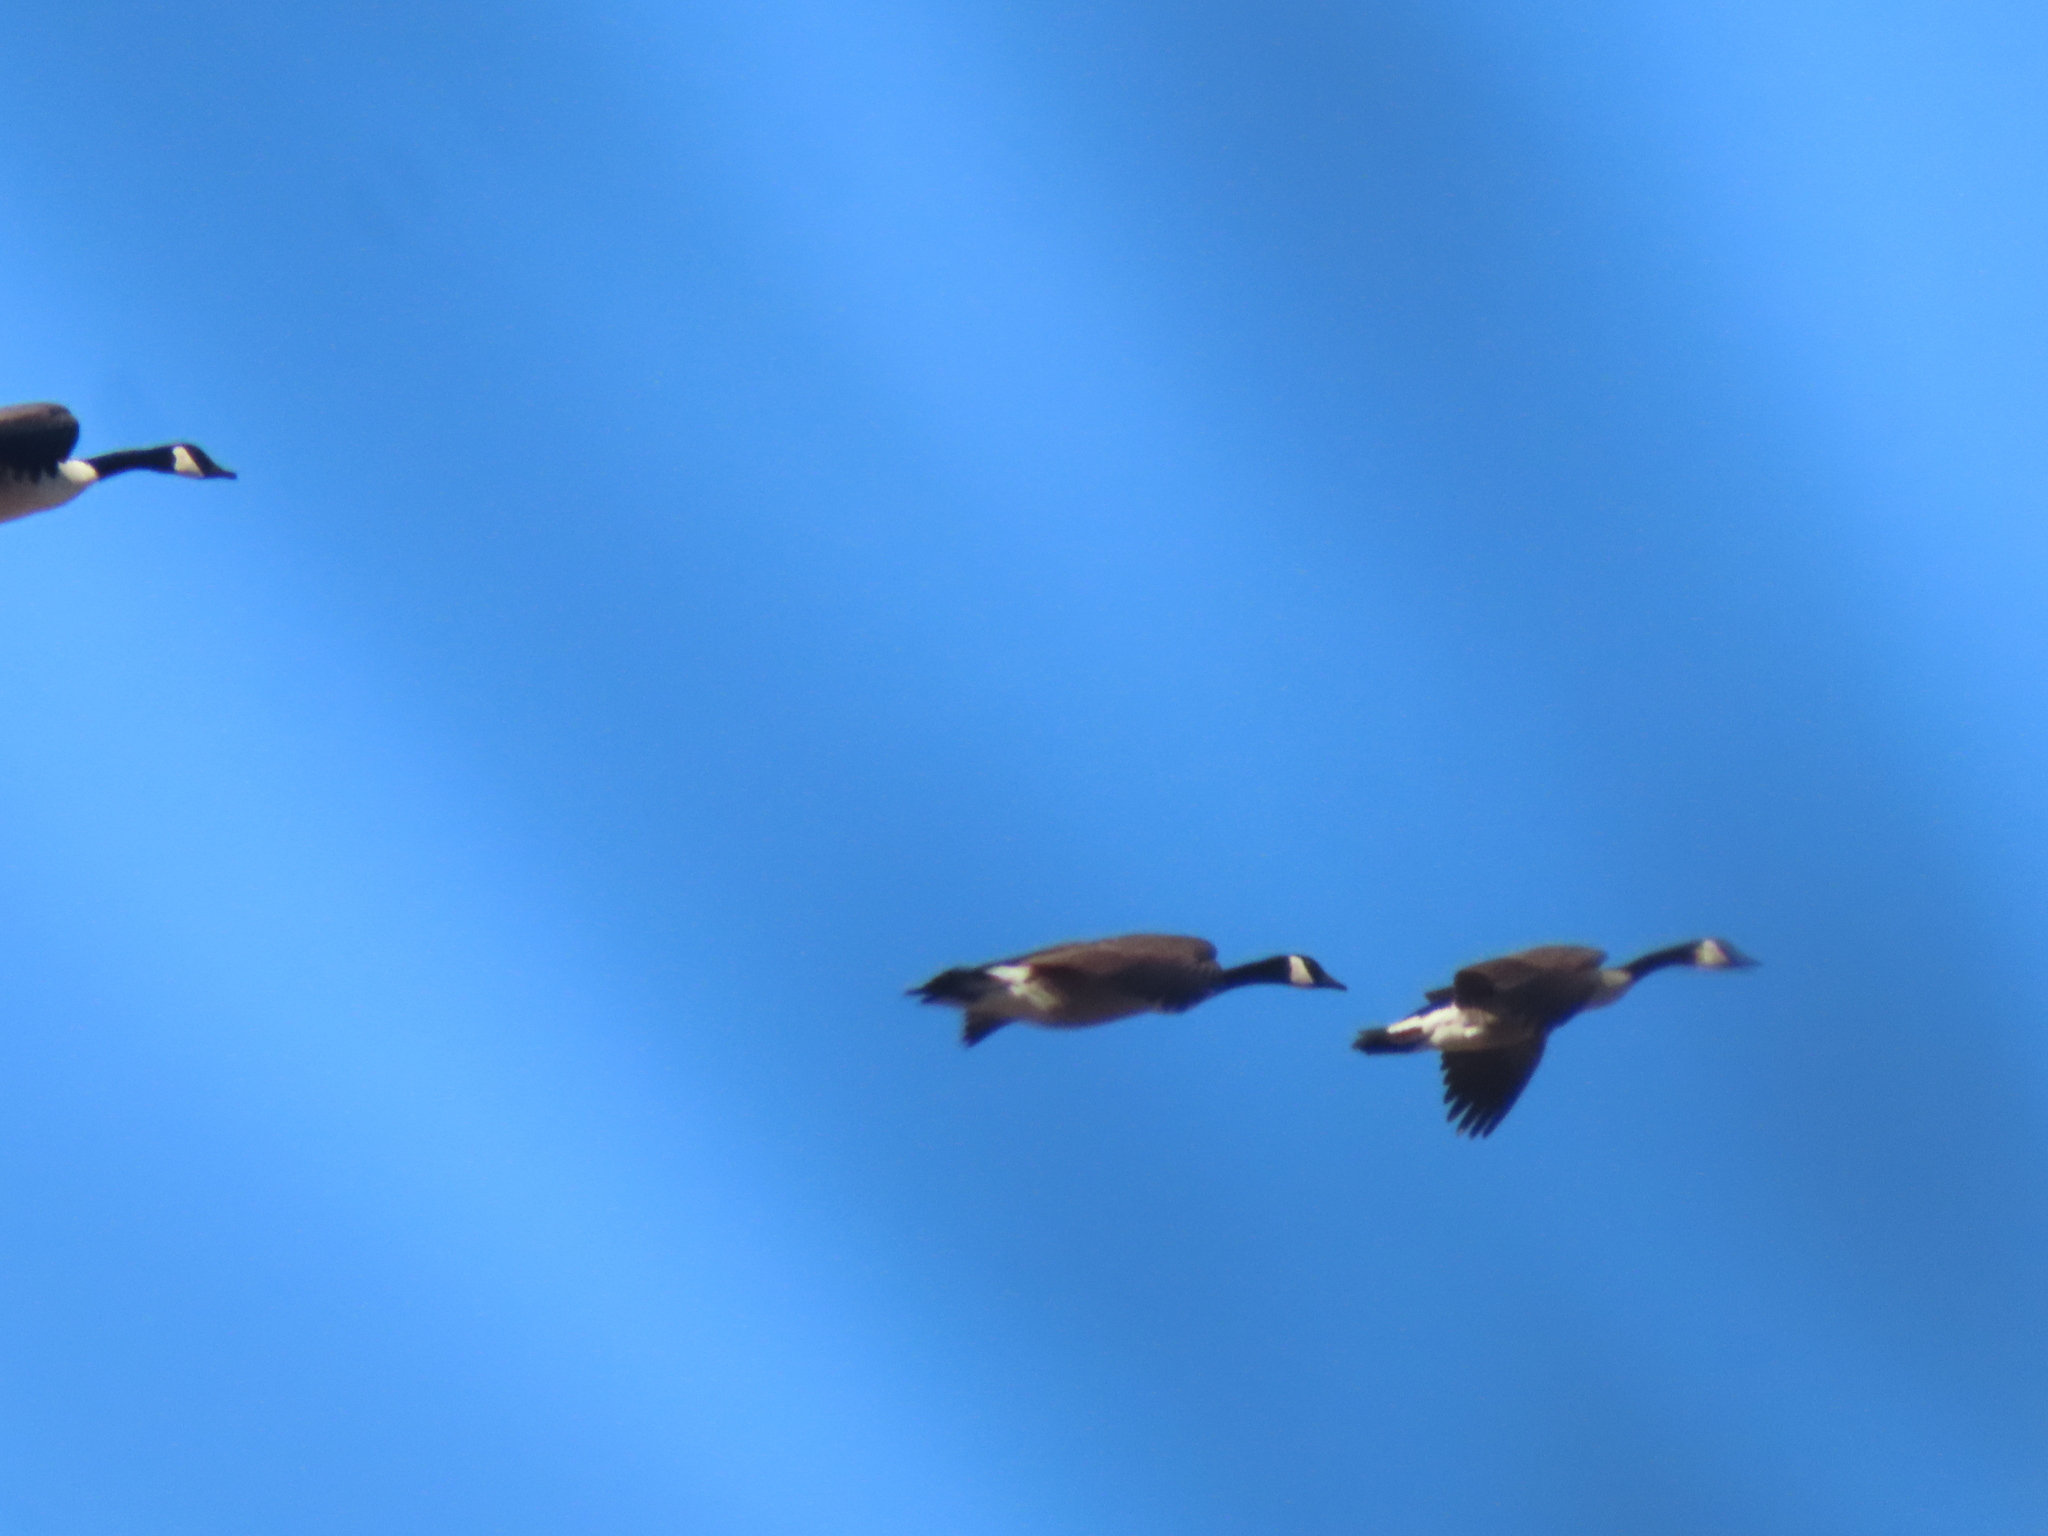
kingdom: Animalia
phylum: Chordata
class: Aves
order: Anseriformes
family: Anatidae
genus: Branta
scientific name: Branta canadensis
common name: Canada goose
